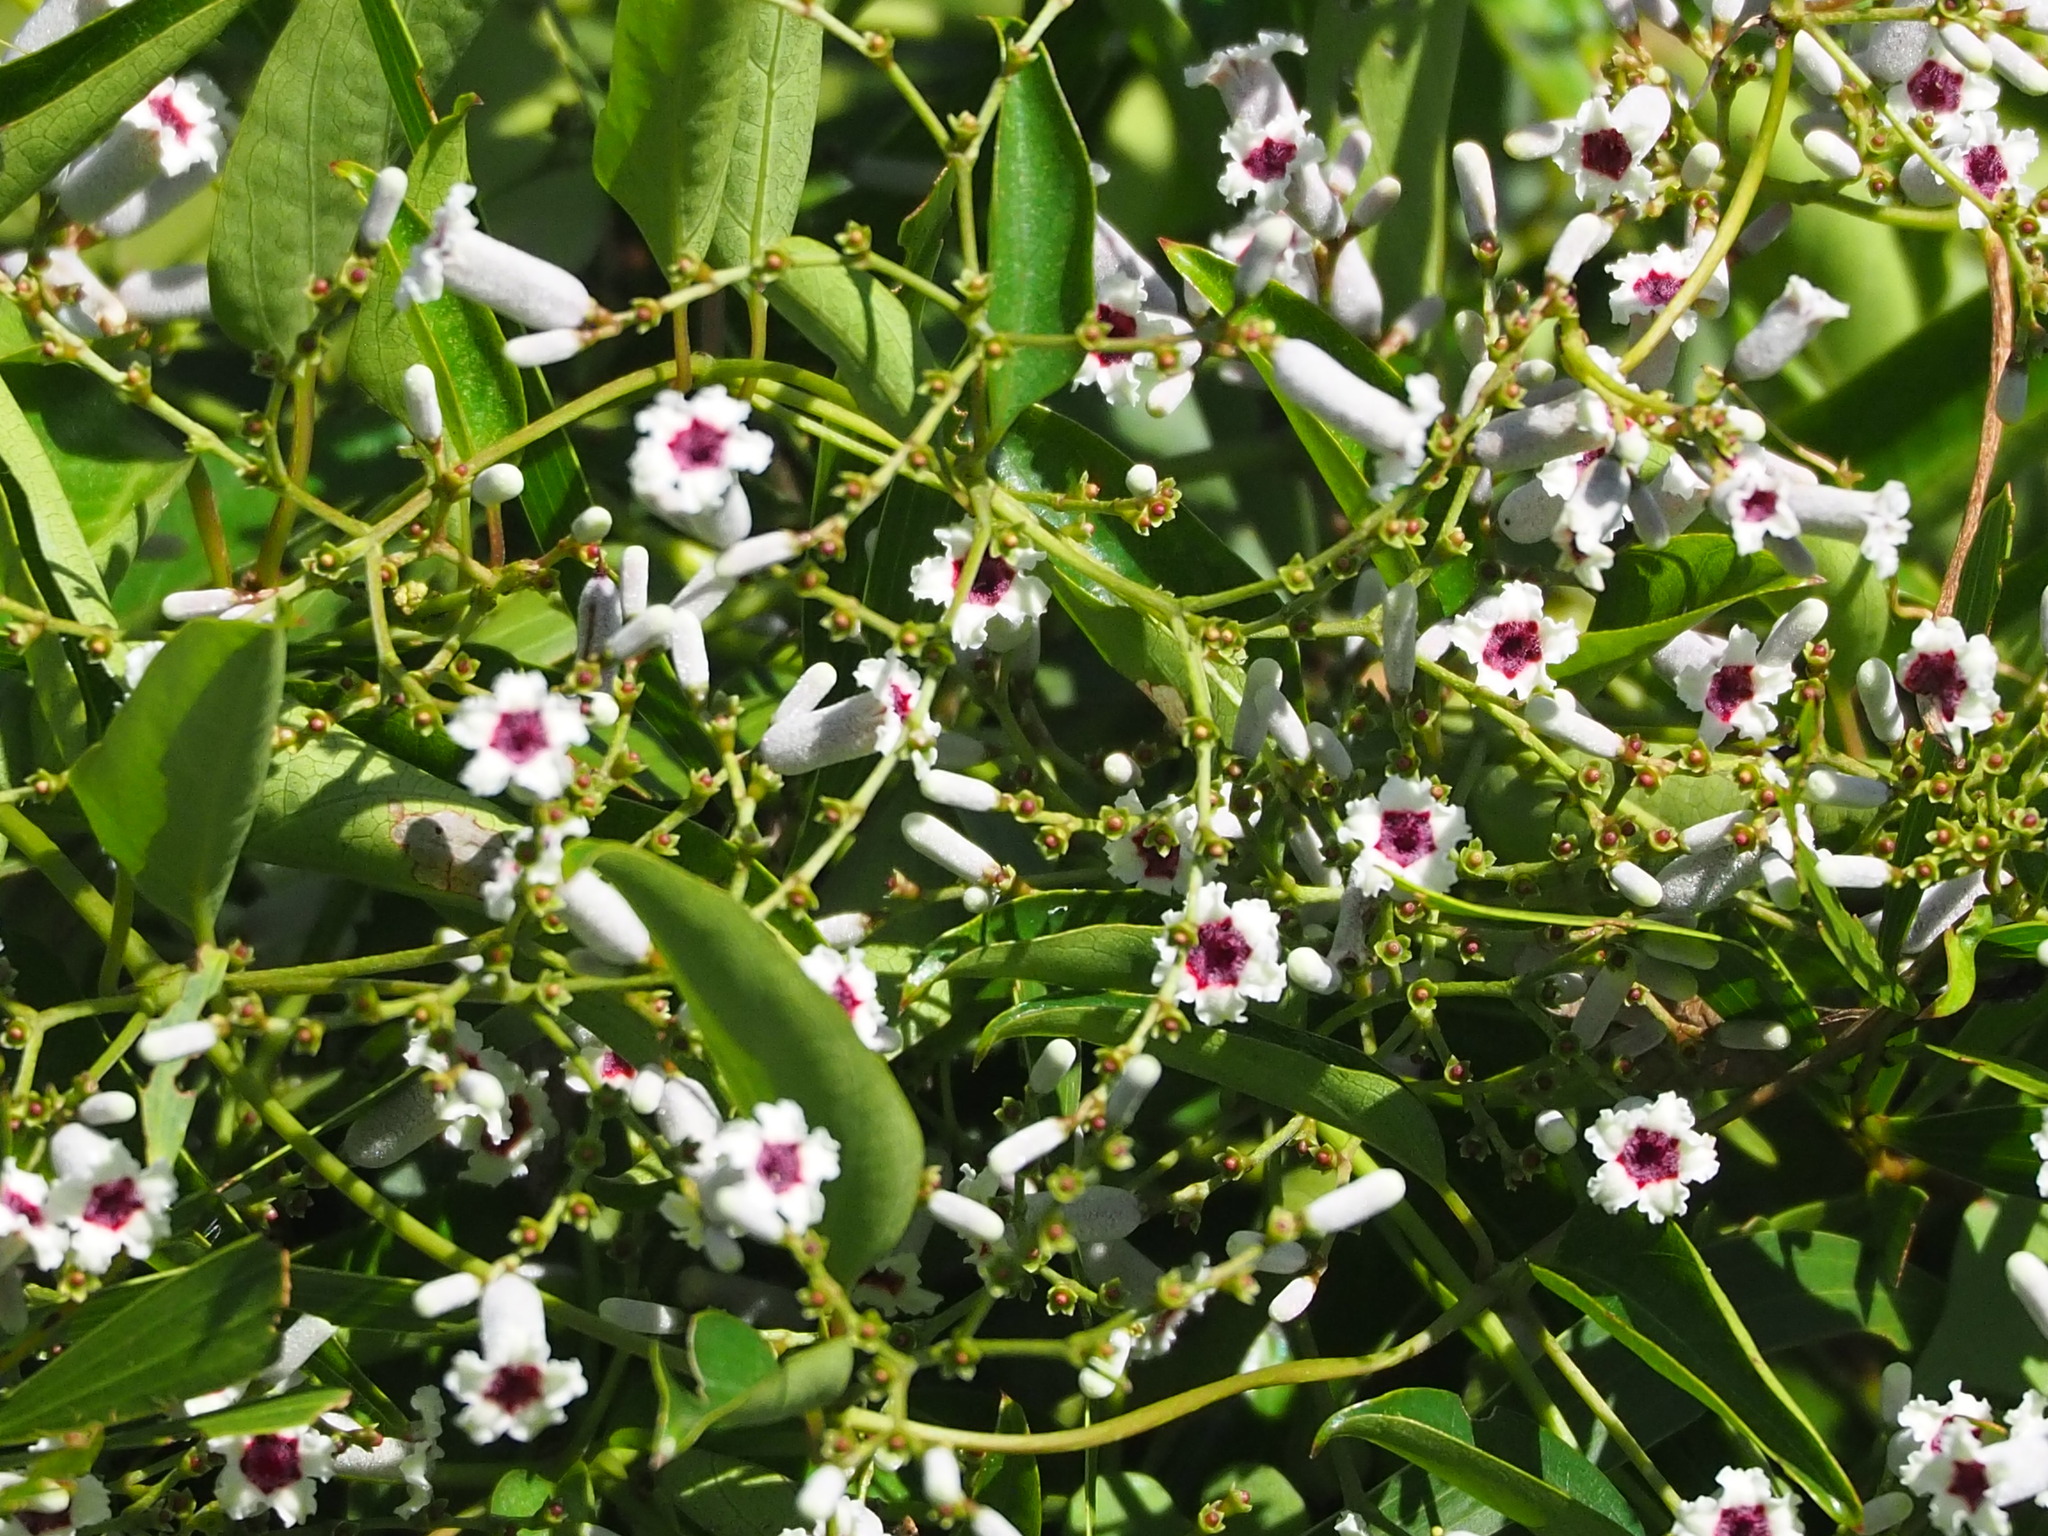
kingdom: Plantae
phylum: Tracheophyta
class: Magnoliopsida
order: Gentianales
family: Rubiaceae
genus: Paederia
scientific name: Paederia foetida
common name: Stinkvine
